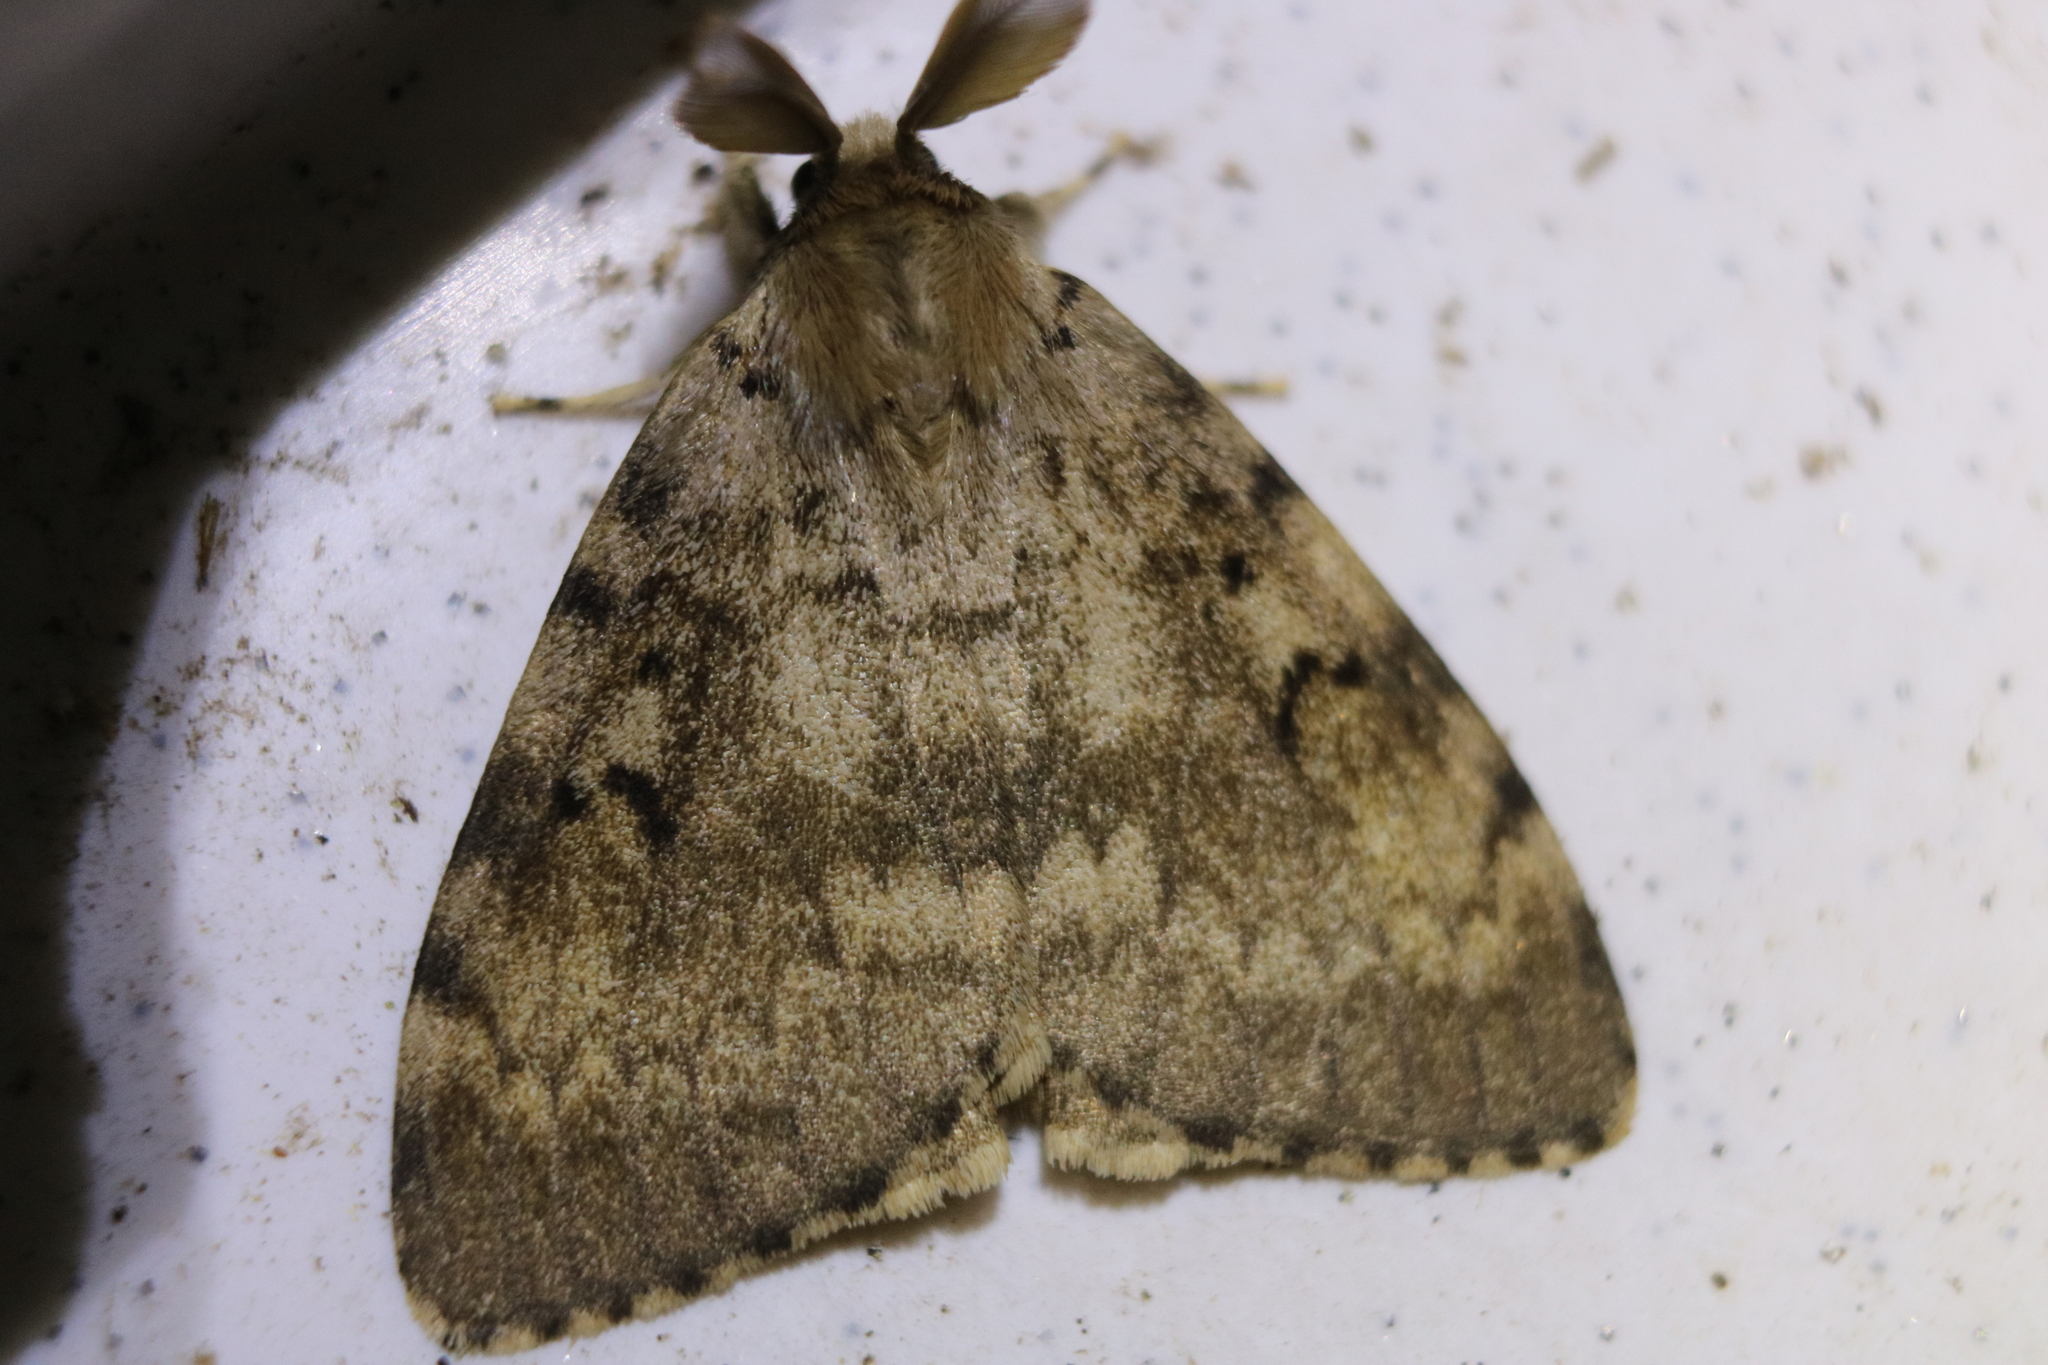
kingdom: Animalia
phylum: Arthropoda
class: Insecta
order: Lepidoptera
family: Erebidae
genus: Lymantria
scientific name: Lymantria dispar
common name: Gypsy moth
